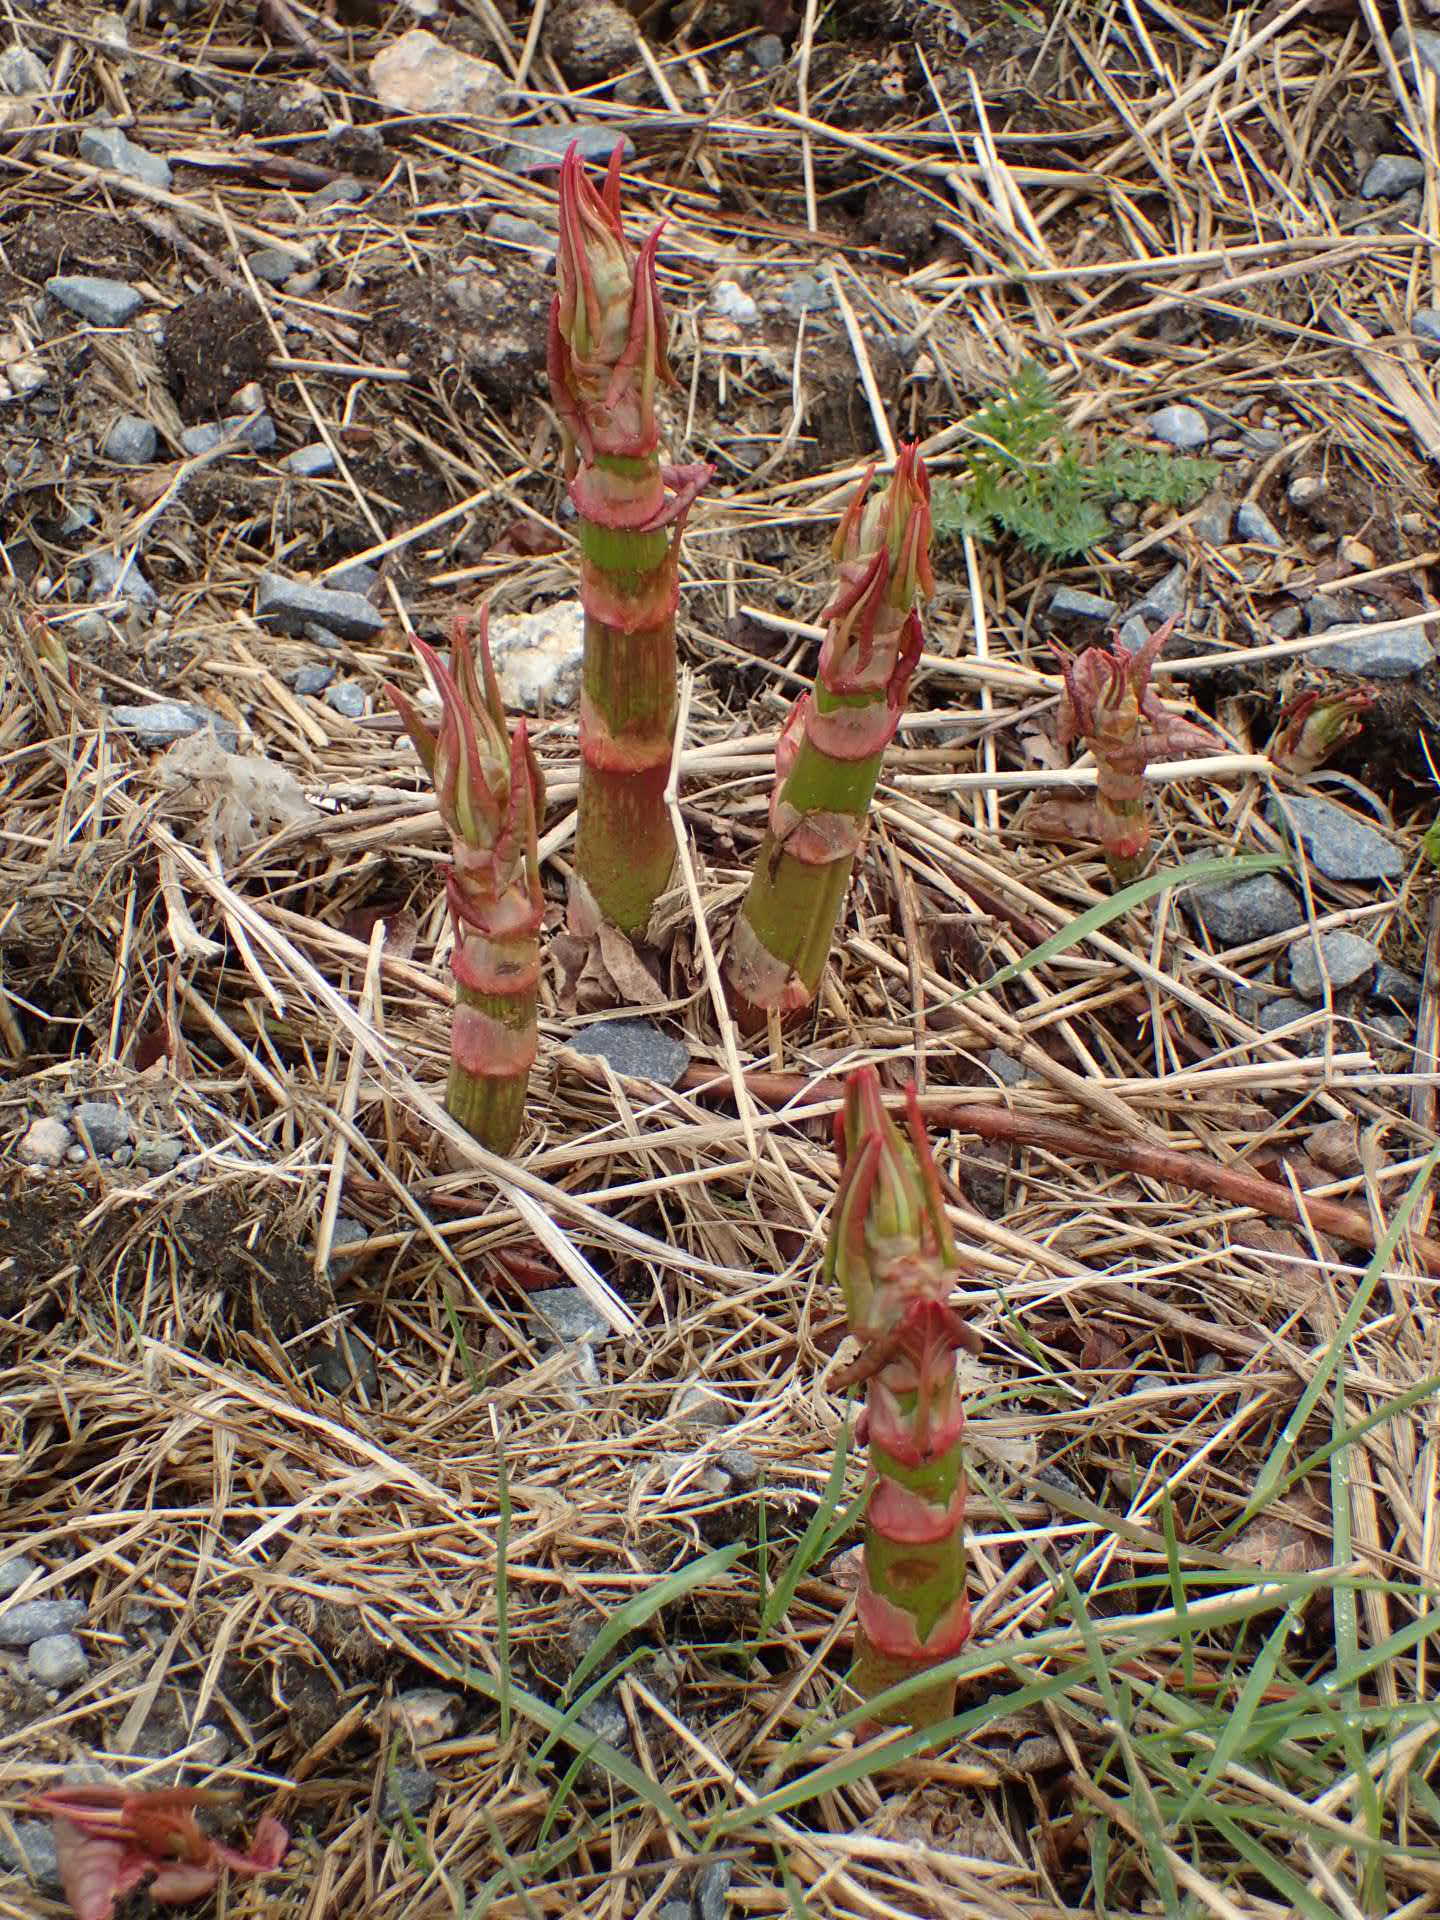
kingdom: Plantae
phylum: Tracheophyta
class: Magnoliopsida
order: Caryophyllales
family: Polygonaceae
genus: Reynoutria
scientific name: Reynoutria japonica
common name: Japanese knotweed
